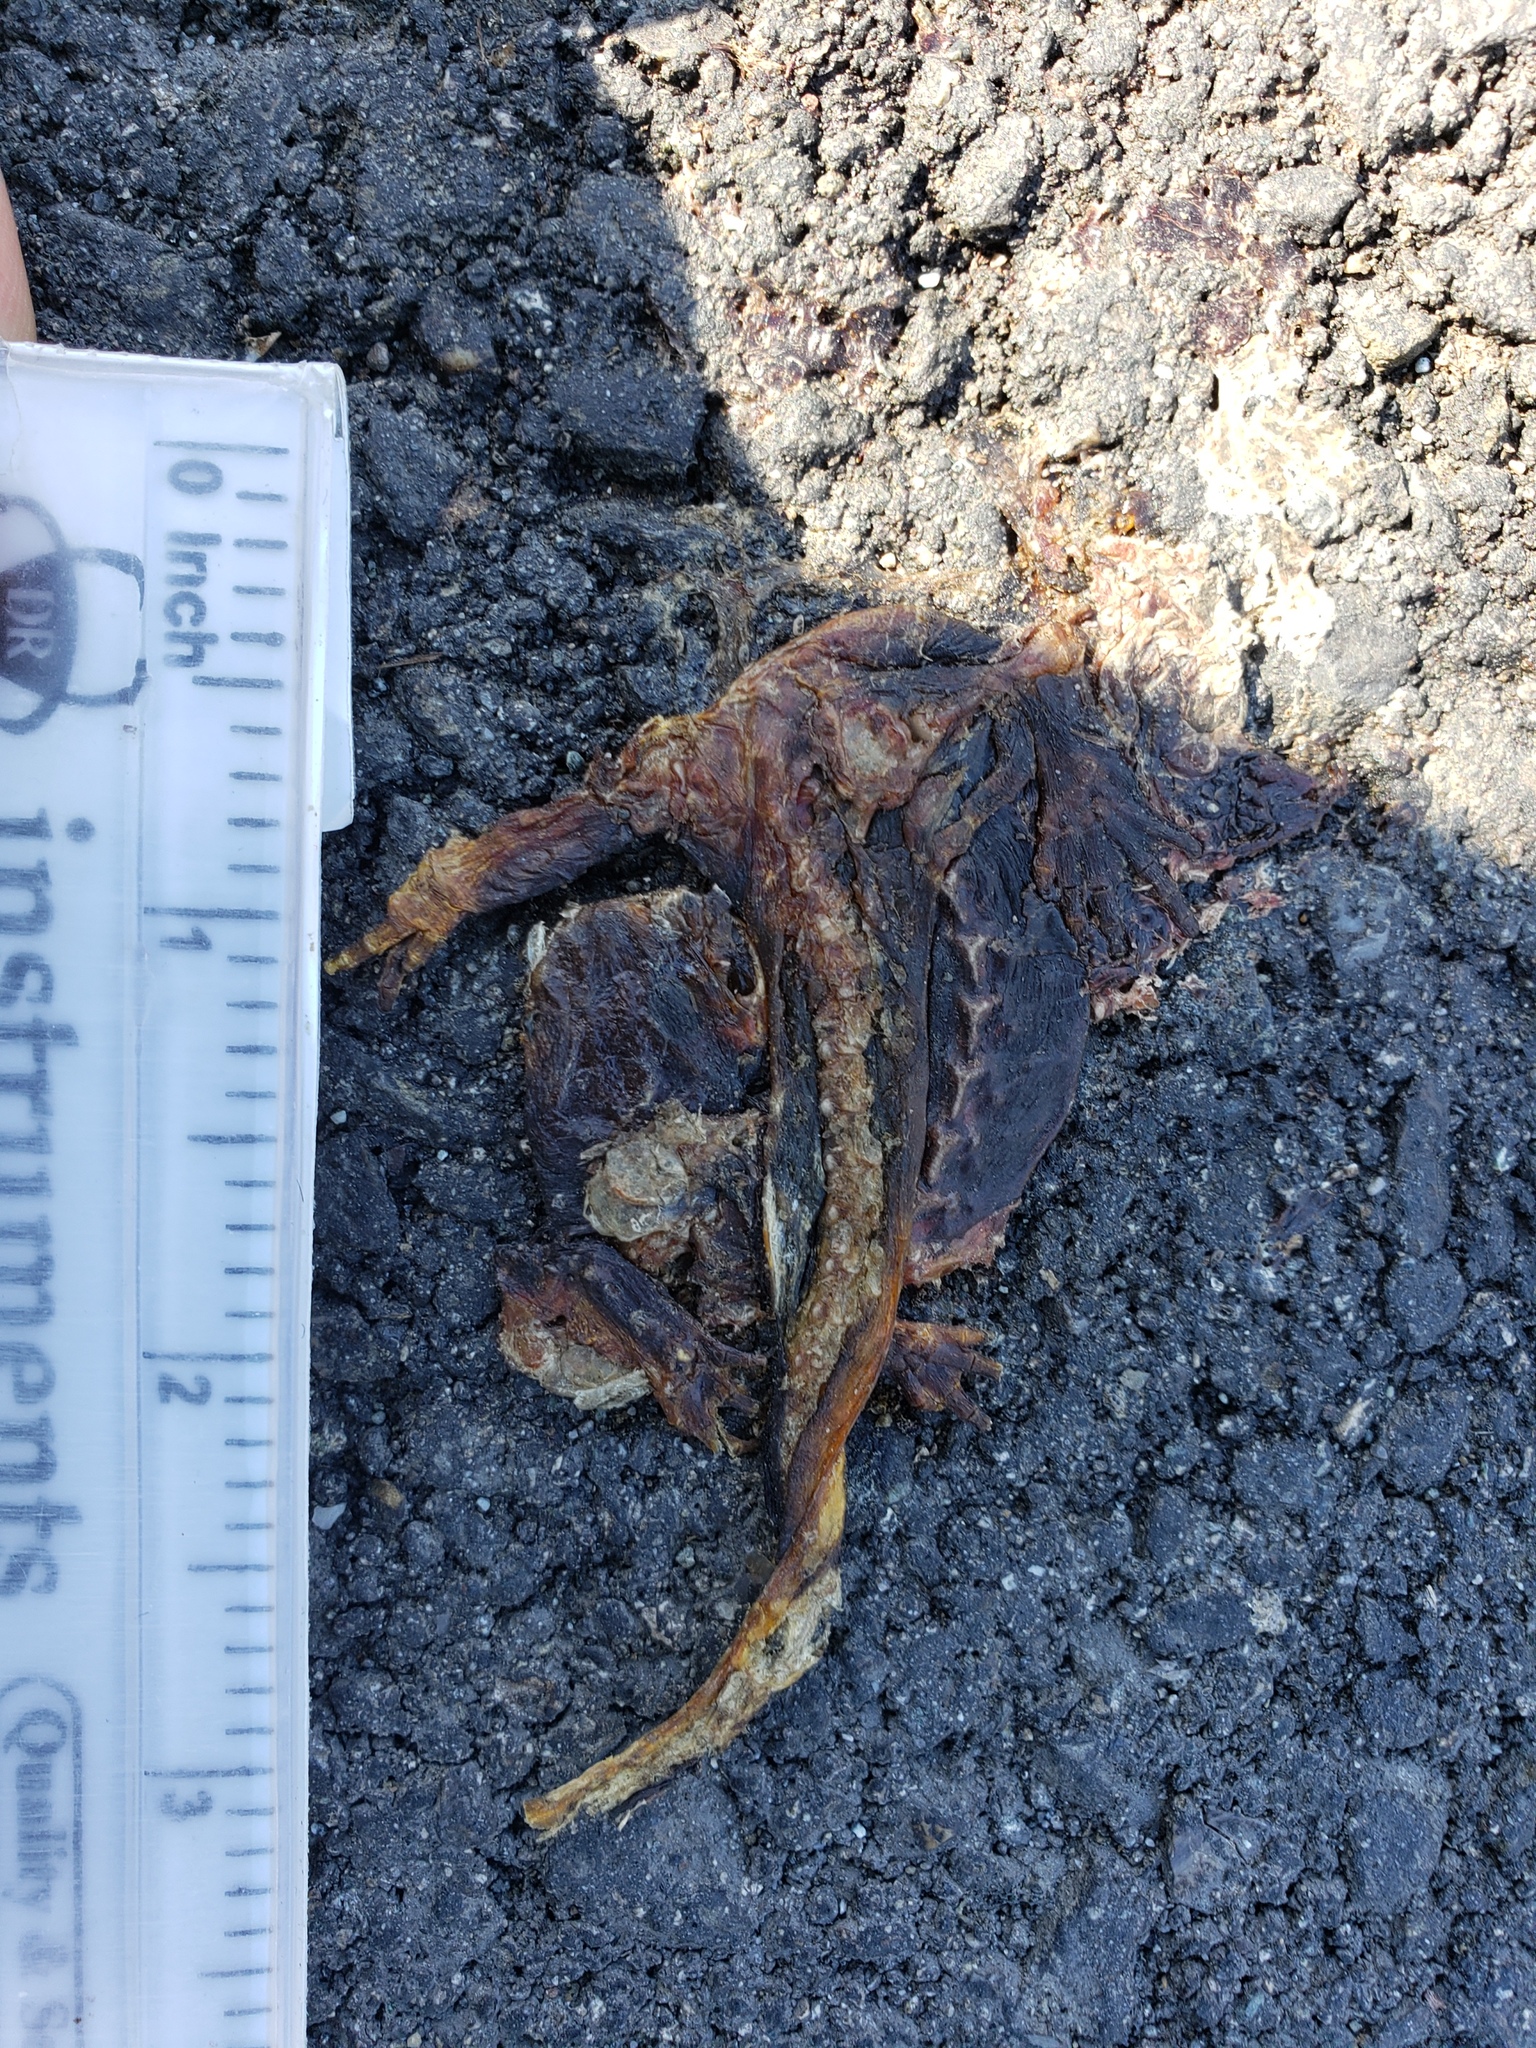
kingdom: Animalia
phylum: Chordata
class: Amphibia
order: Caudata
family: Salamandridae
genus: Taricha
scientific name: Taricha
